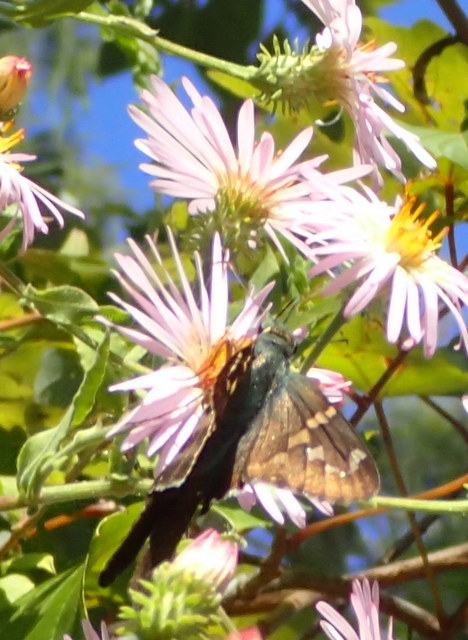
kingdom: Animalia
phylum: Arthropoda
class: Insecta
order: Lepidoptera
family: Hesperiidae
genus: Urbanus
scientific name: Urbanus proteus
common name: Long-tailed skipper
